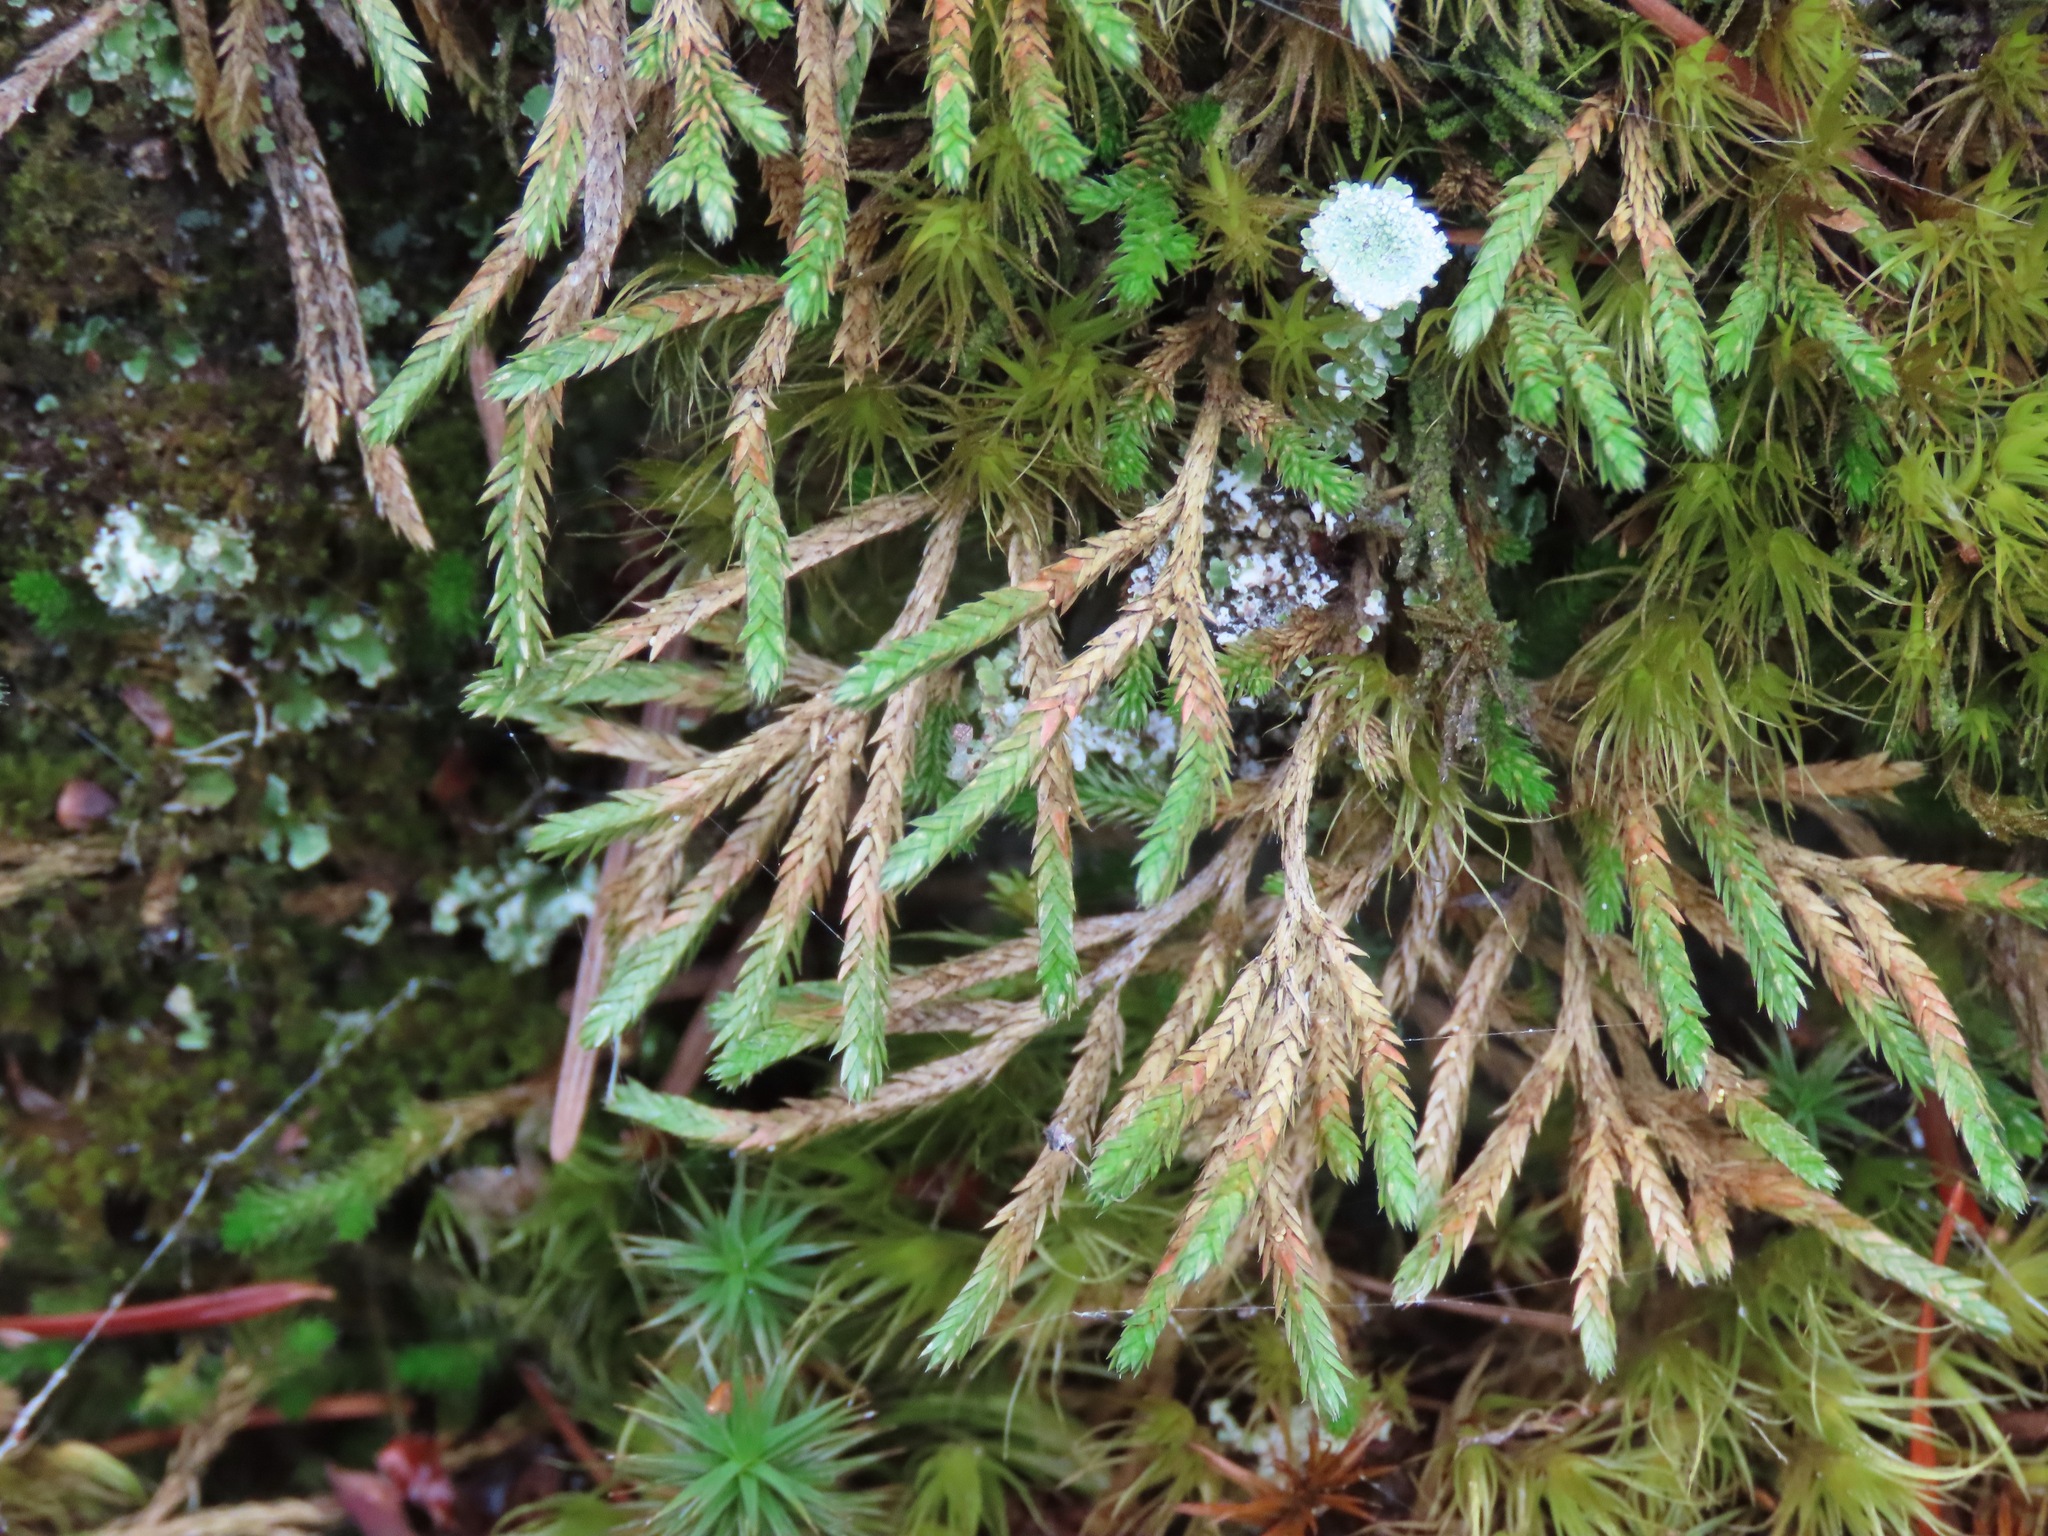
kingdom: Plantae
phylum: Tracheophyta
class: Lycopodiopsida
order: Selaginellales
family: Selaginellaceae
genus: Selaginella
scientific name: Selaginella wallacei
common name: Wallace's selaginella
